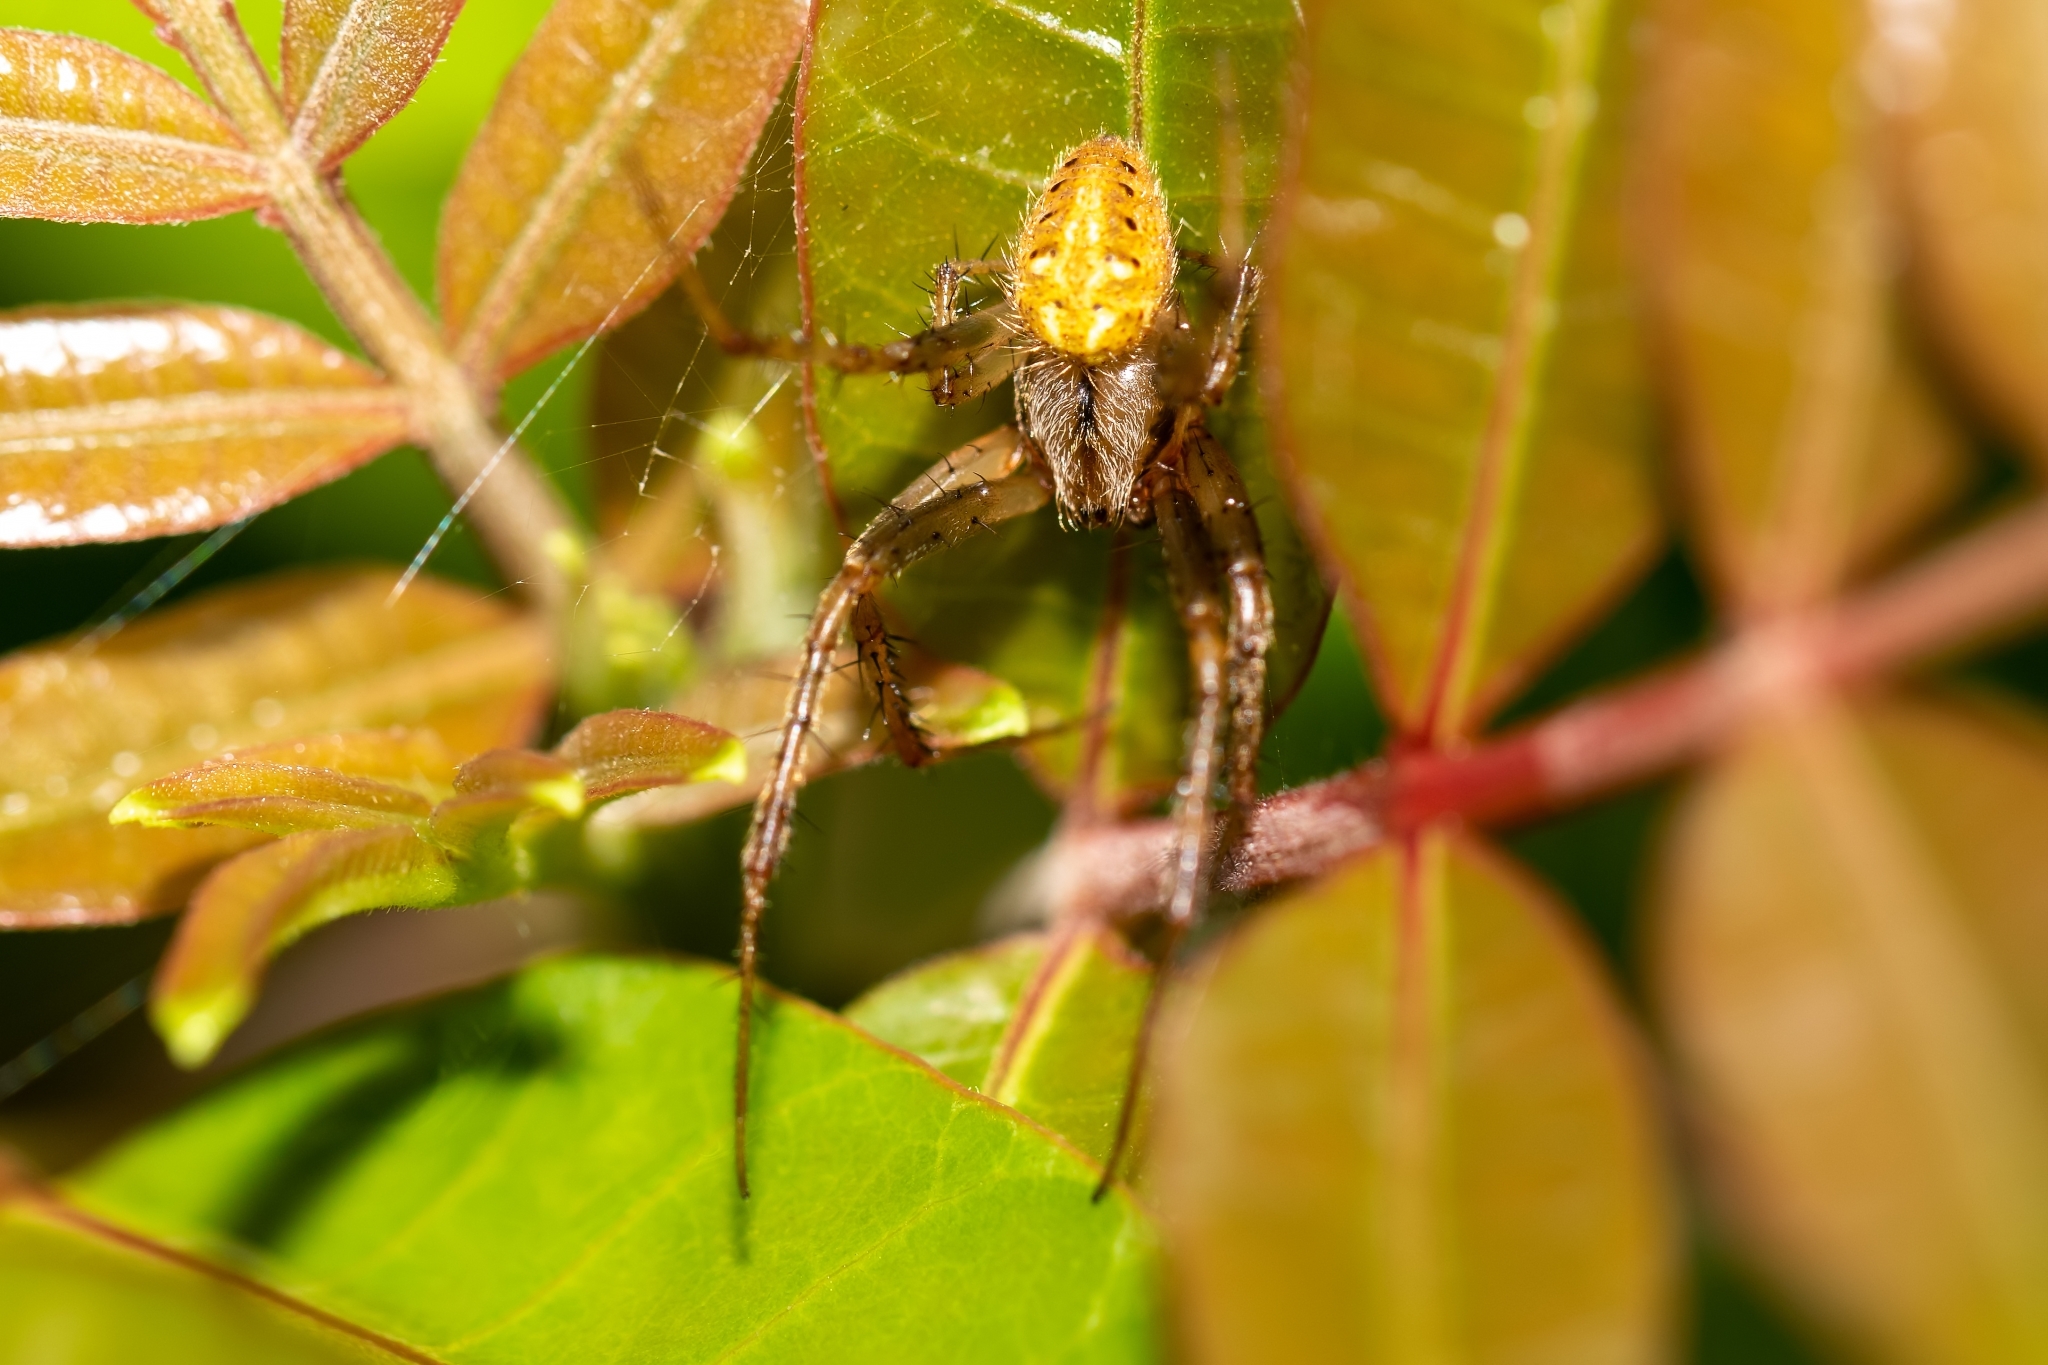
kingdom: Animalia
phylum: Arthropoda
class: Arachnida
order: Araneae
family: Araneidae
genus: Neoscona
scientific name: Neoscona arabesca
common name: Orb weavers
